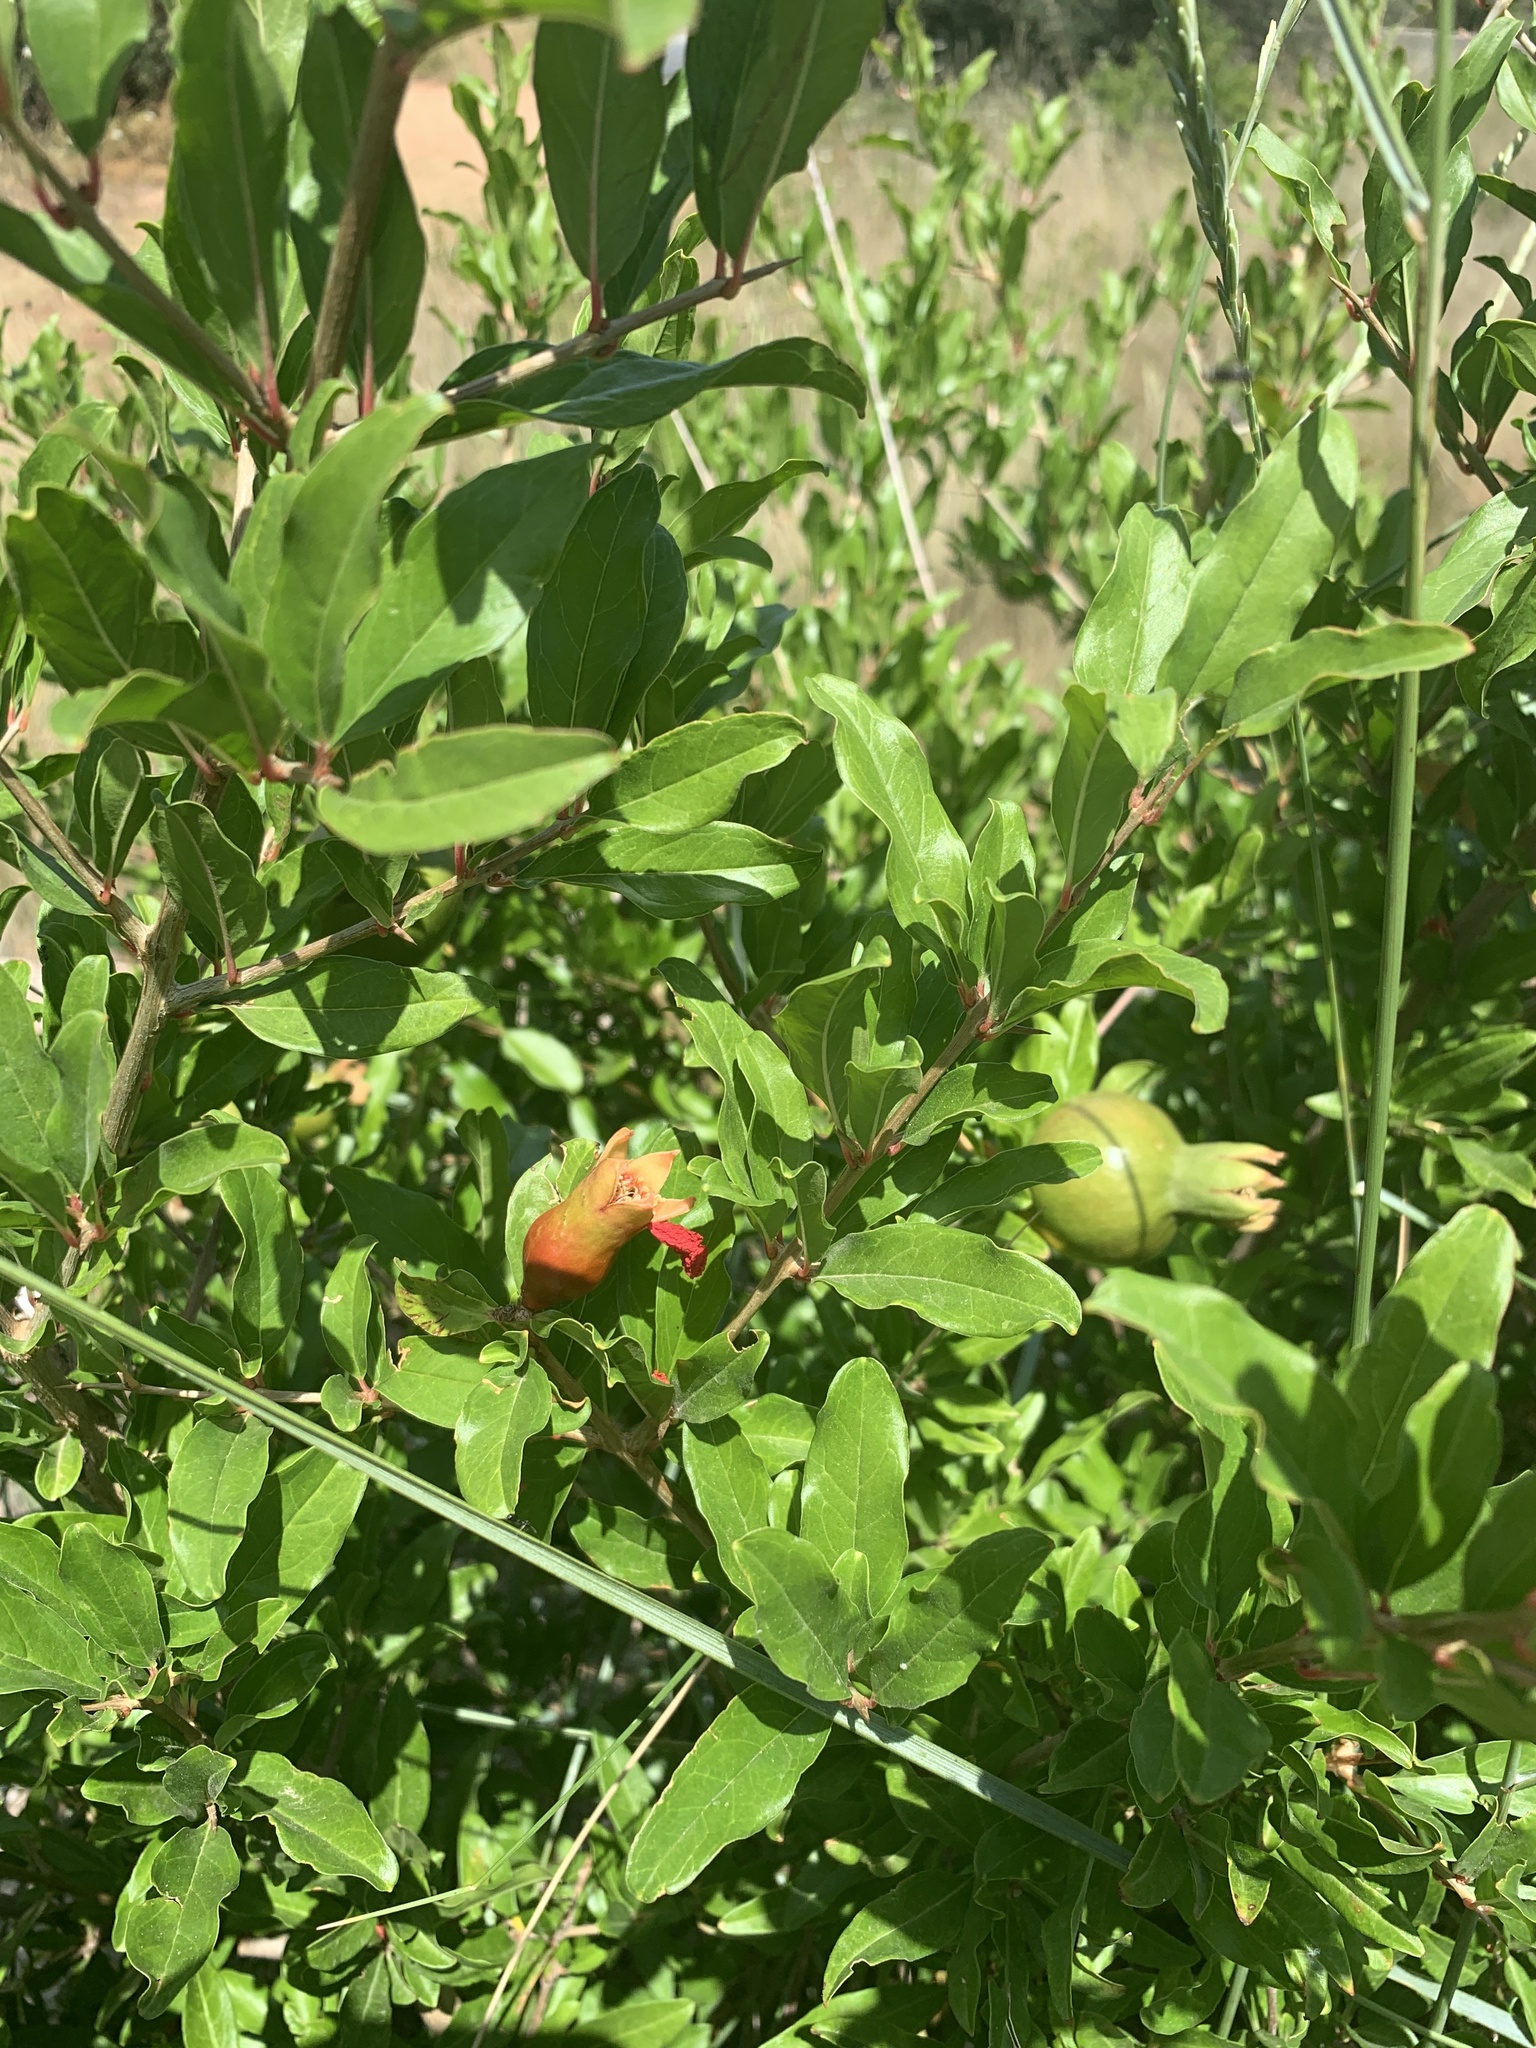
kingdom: Plantae
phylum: Tracheophyta
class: Magnoliopsida
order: Myrtales
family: Lythraceae
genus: Punica
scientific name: Punica granatum
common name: Pomegranate
